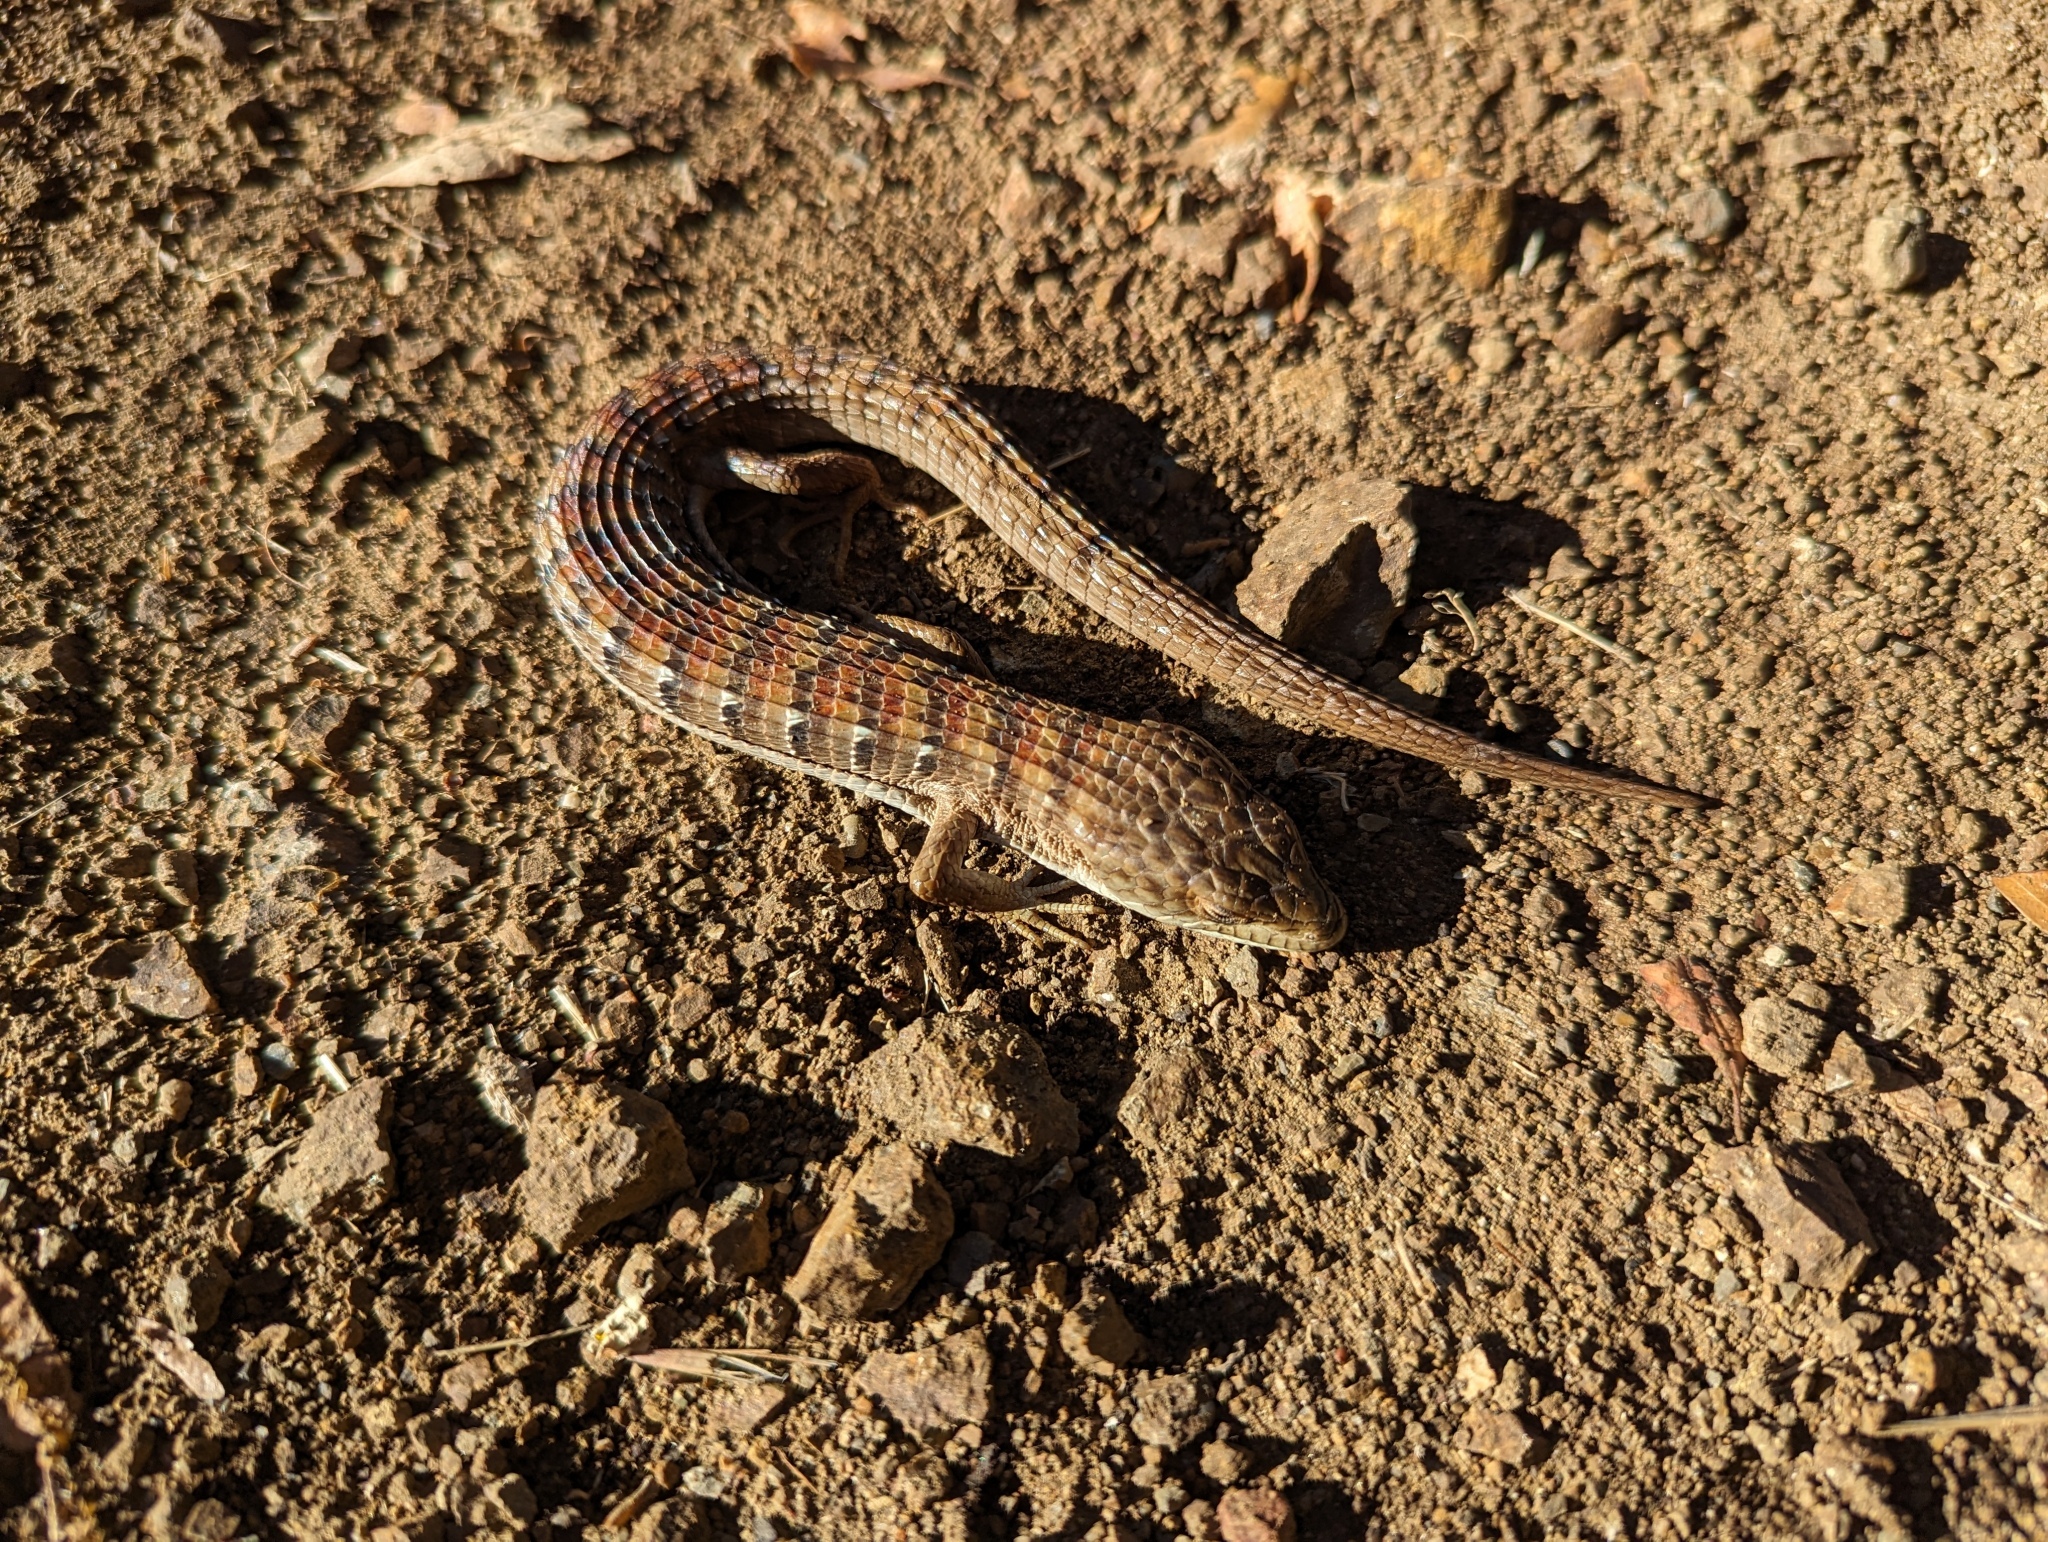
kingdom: Animalia
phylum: Chordata
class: Squamata
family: Anguidae
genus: Elgaria
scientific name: Elgaria multicarinata
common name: Southern alligator lizard
